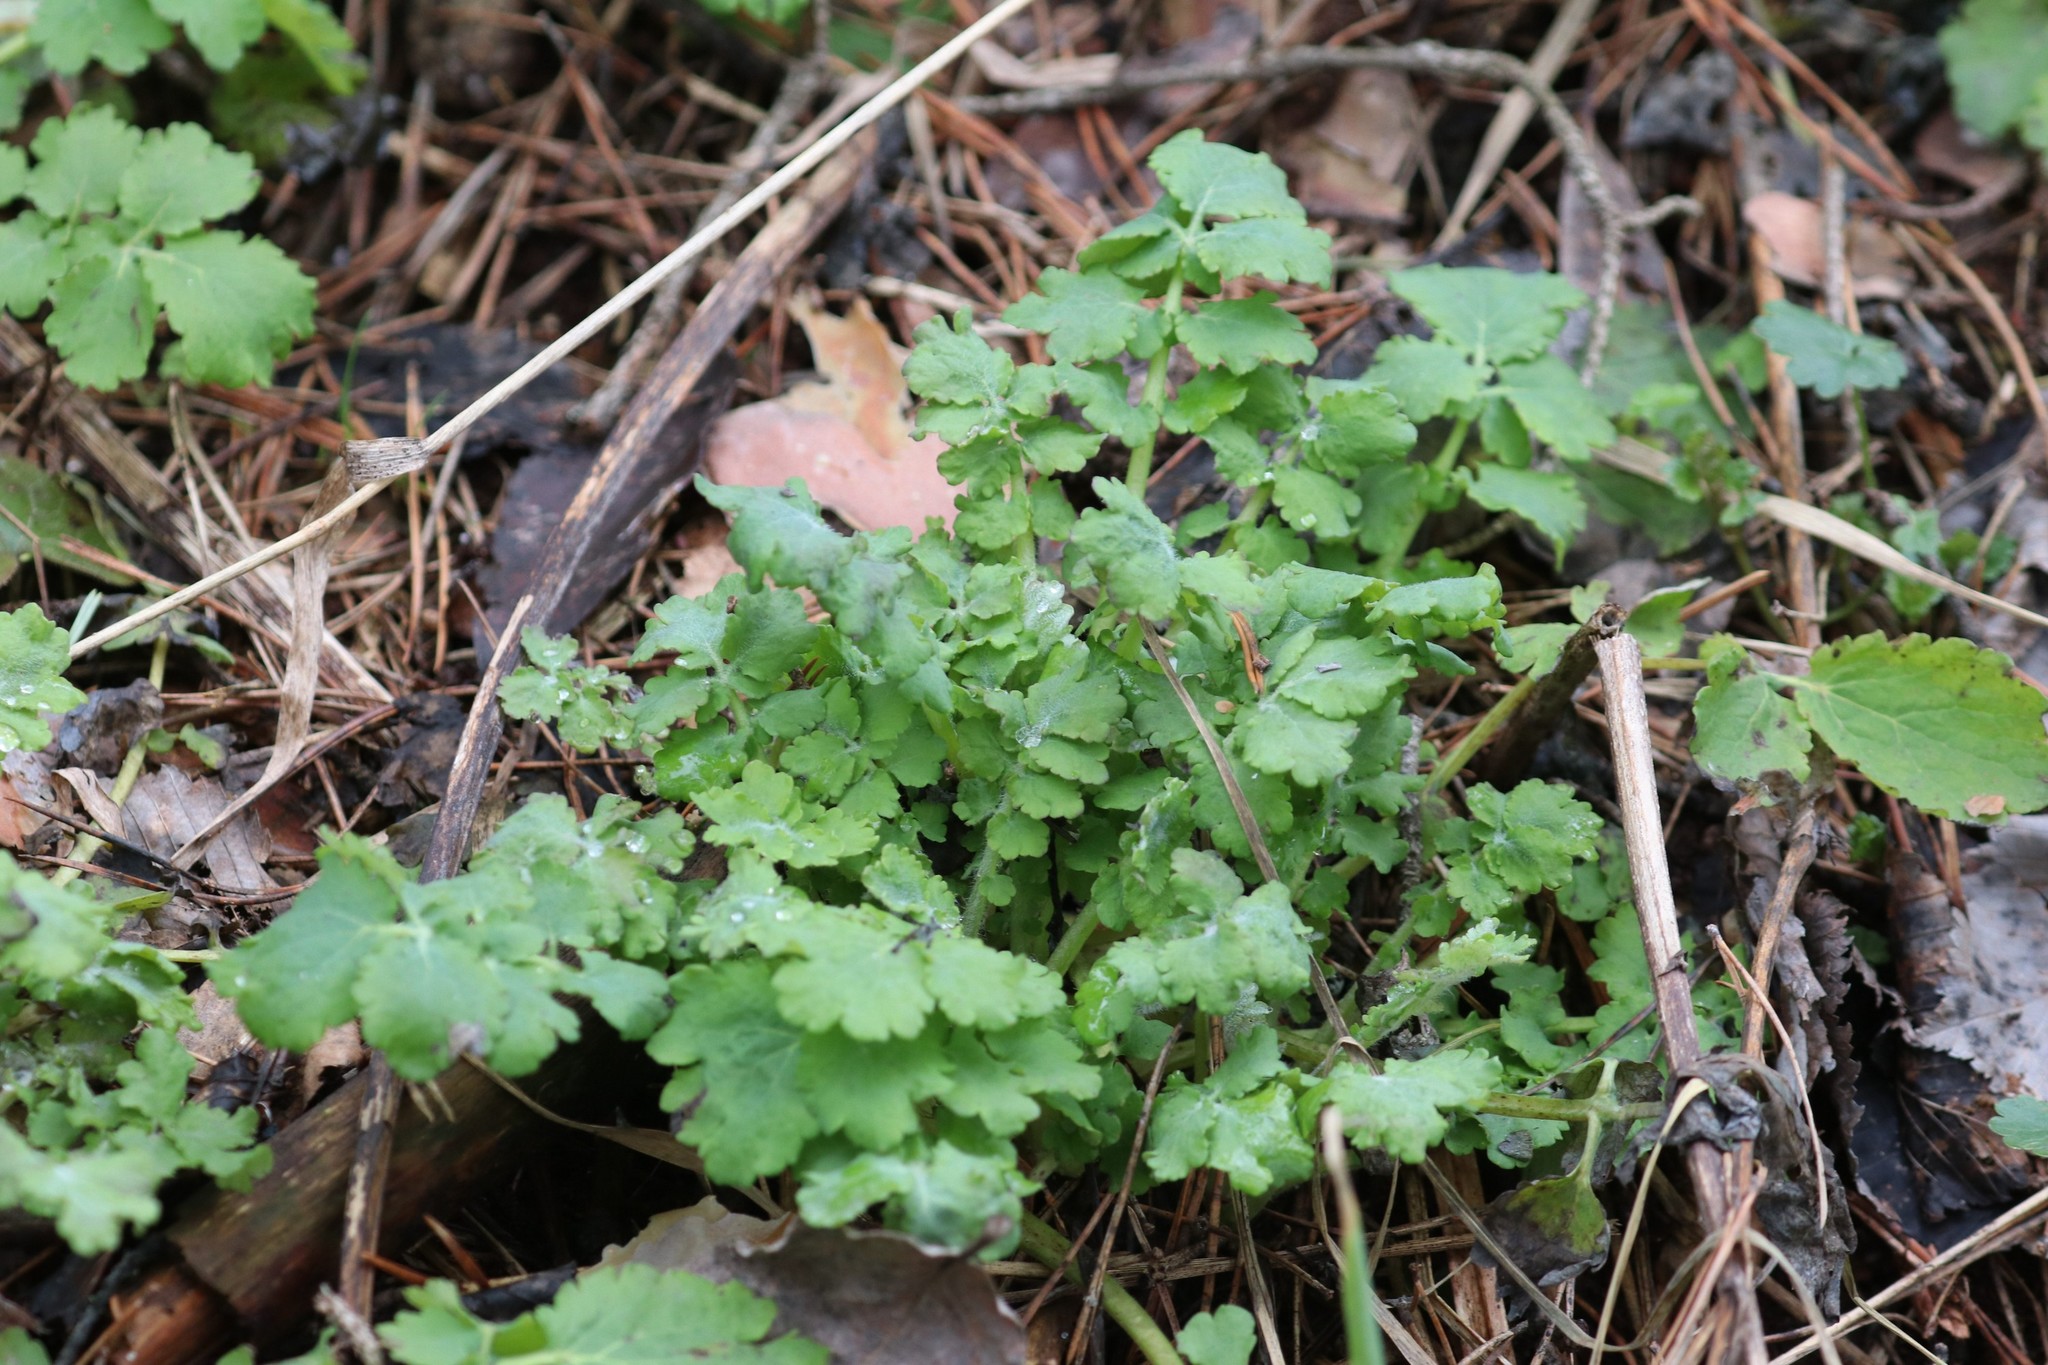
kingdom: Plantae
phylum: Tracheophyta
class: Magnoliopsida
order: Ranunculales
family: Papaveraceae
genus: Chelidonium
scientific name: Chelidonium majus
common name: Greater celandine
